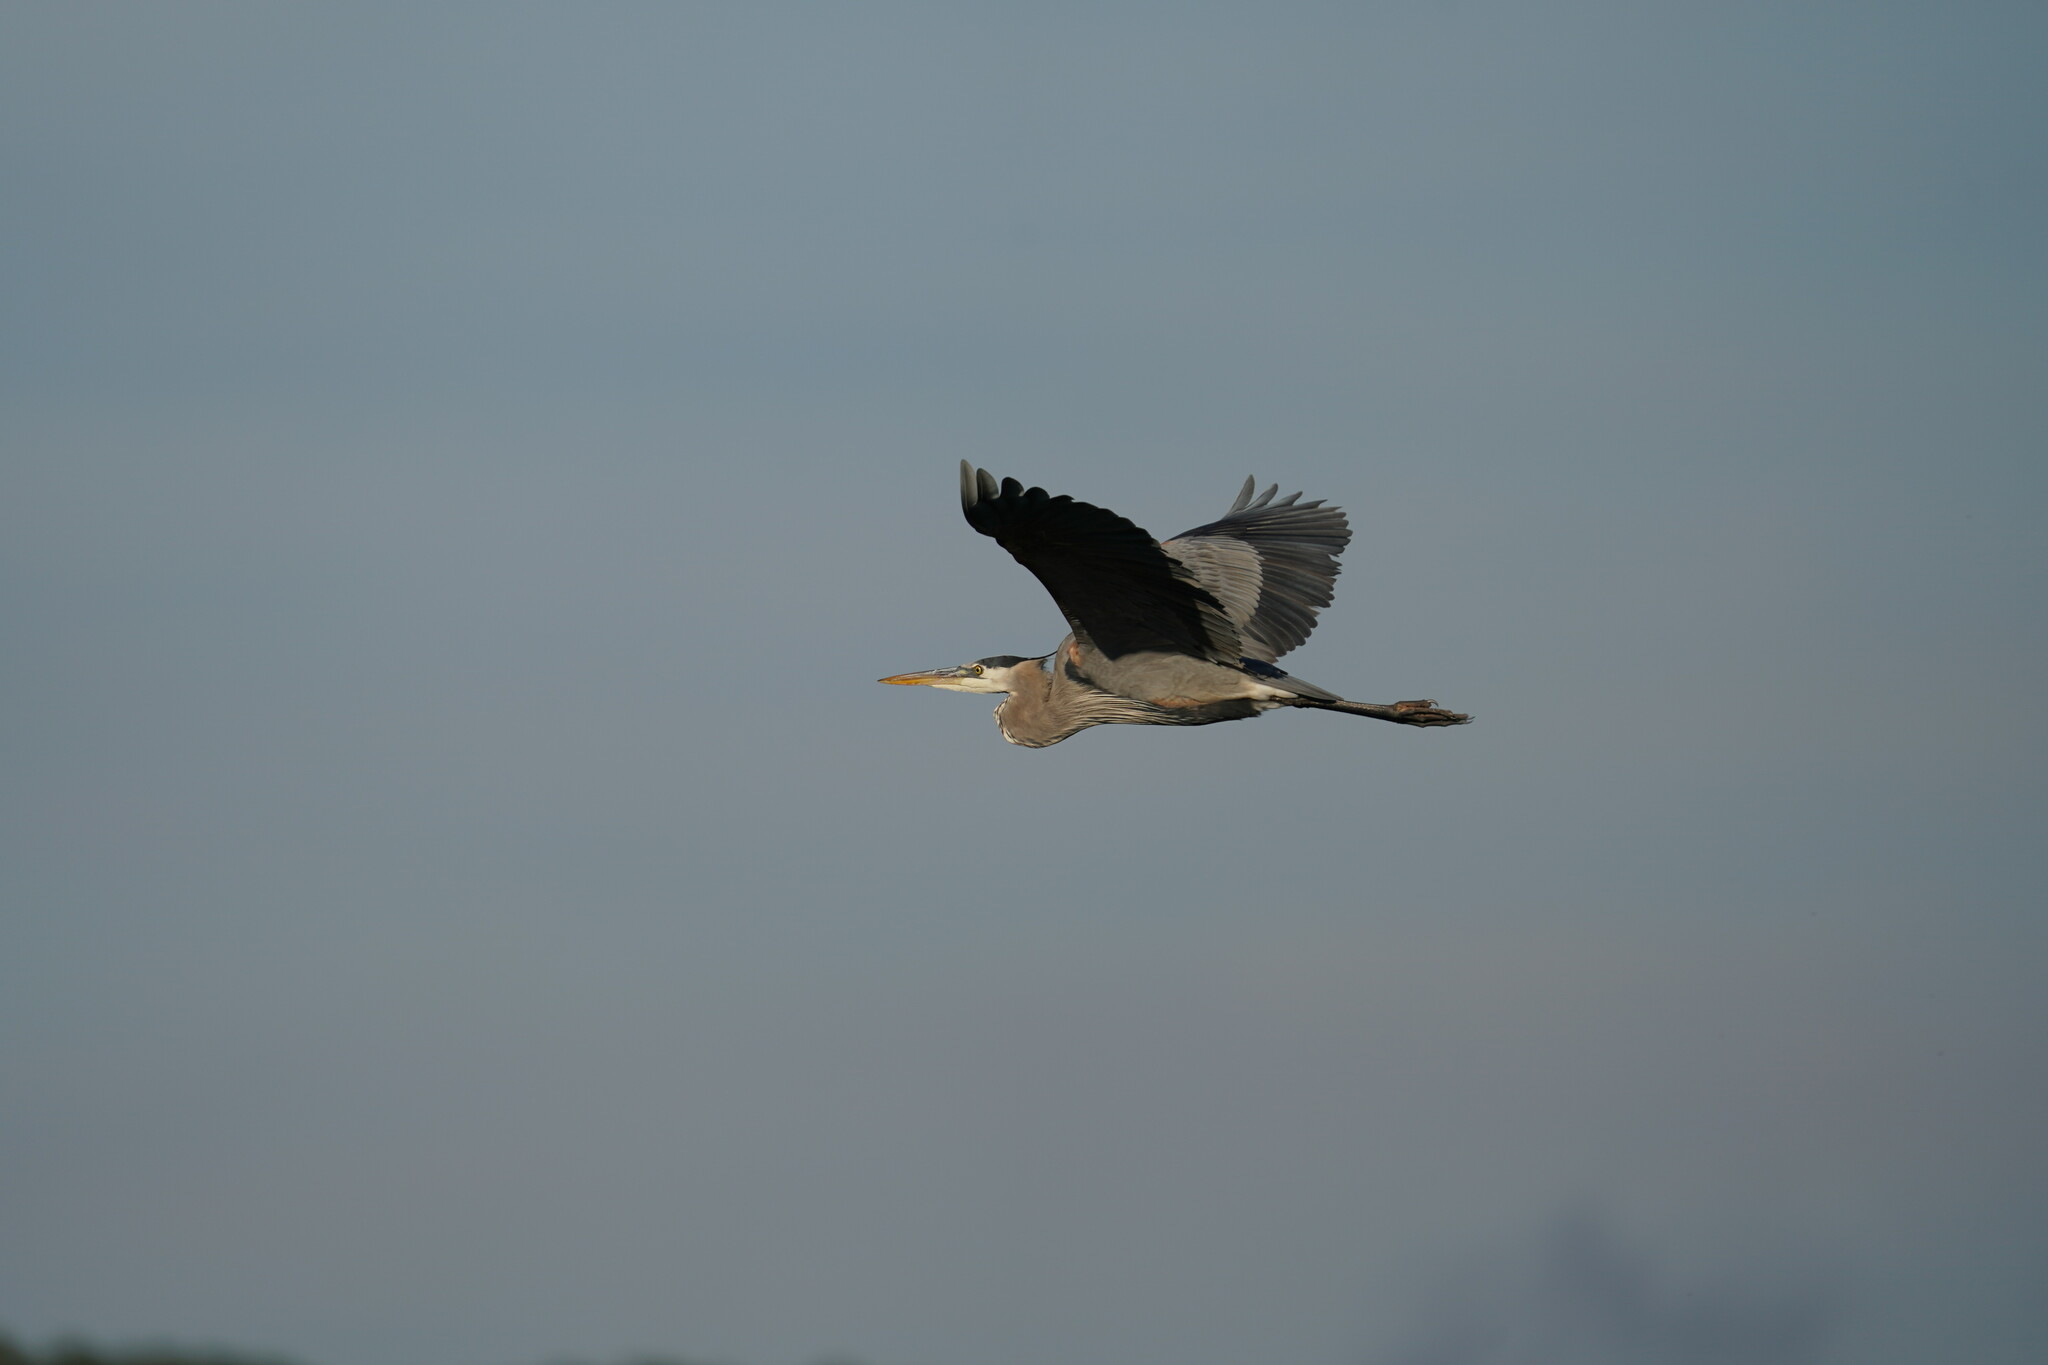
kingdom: Animalia
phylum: Chordata
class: Aves
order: Pelecaniformes
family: Ardeidae
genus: Ardea
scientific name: Ardea herodias
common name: Great blue heron
